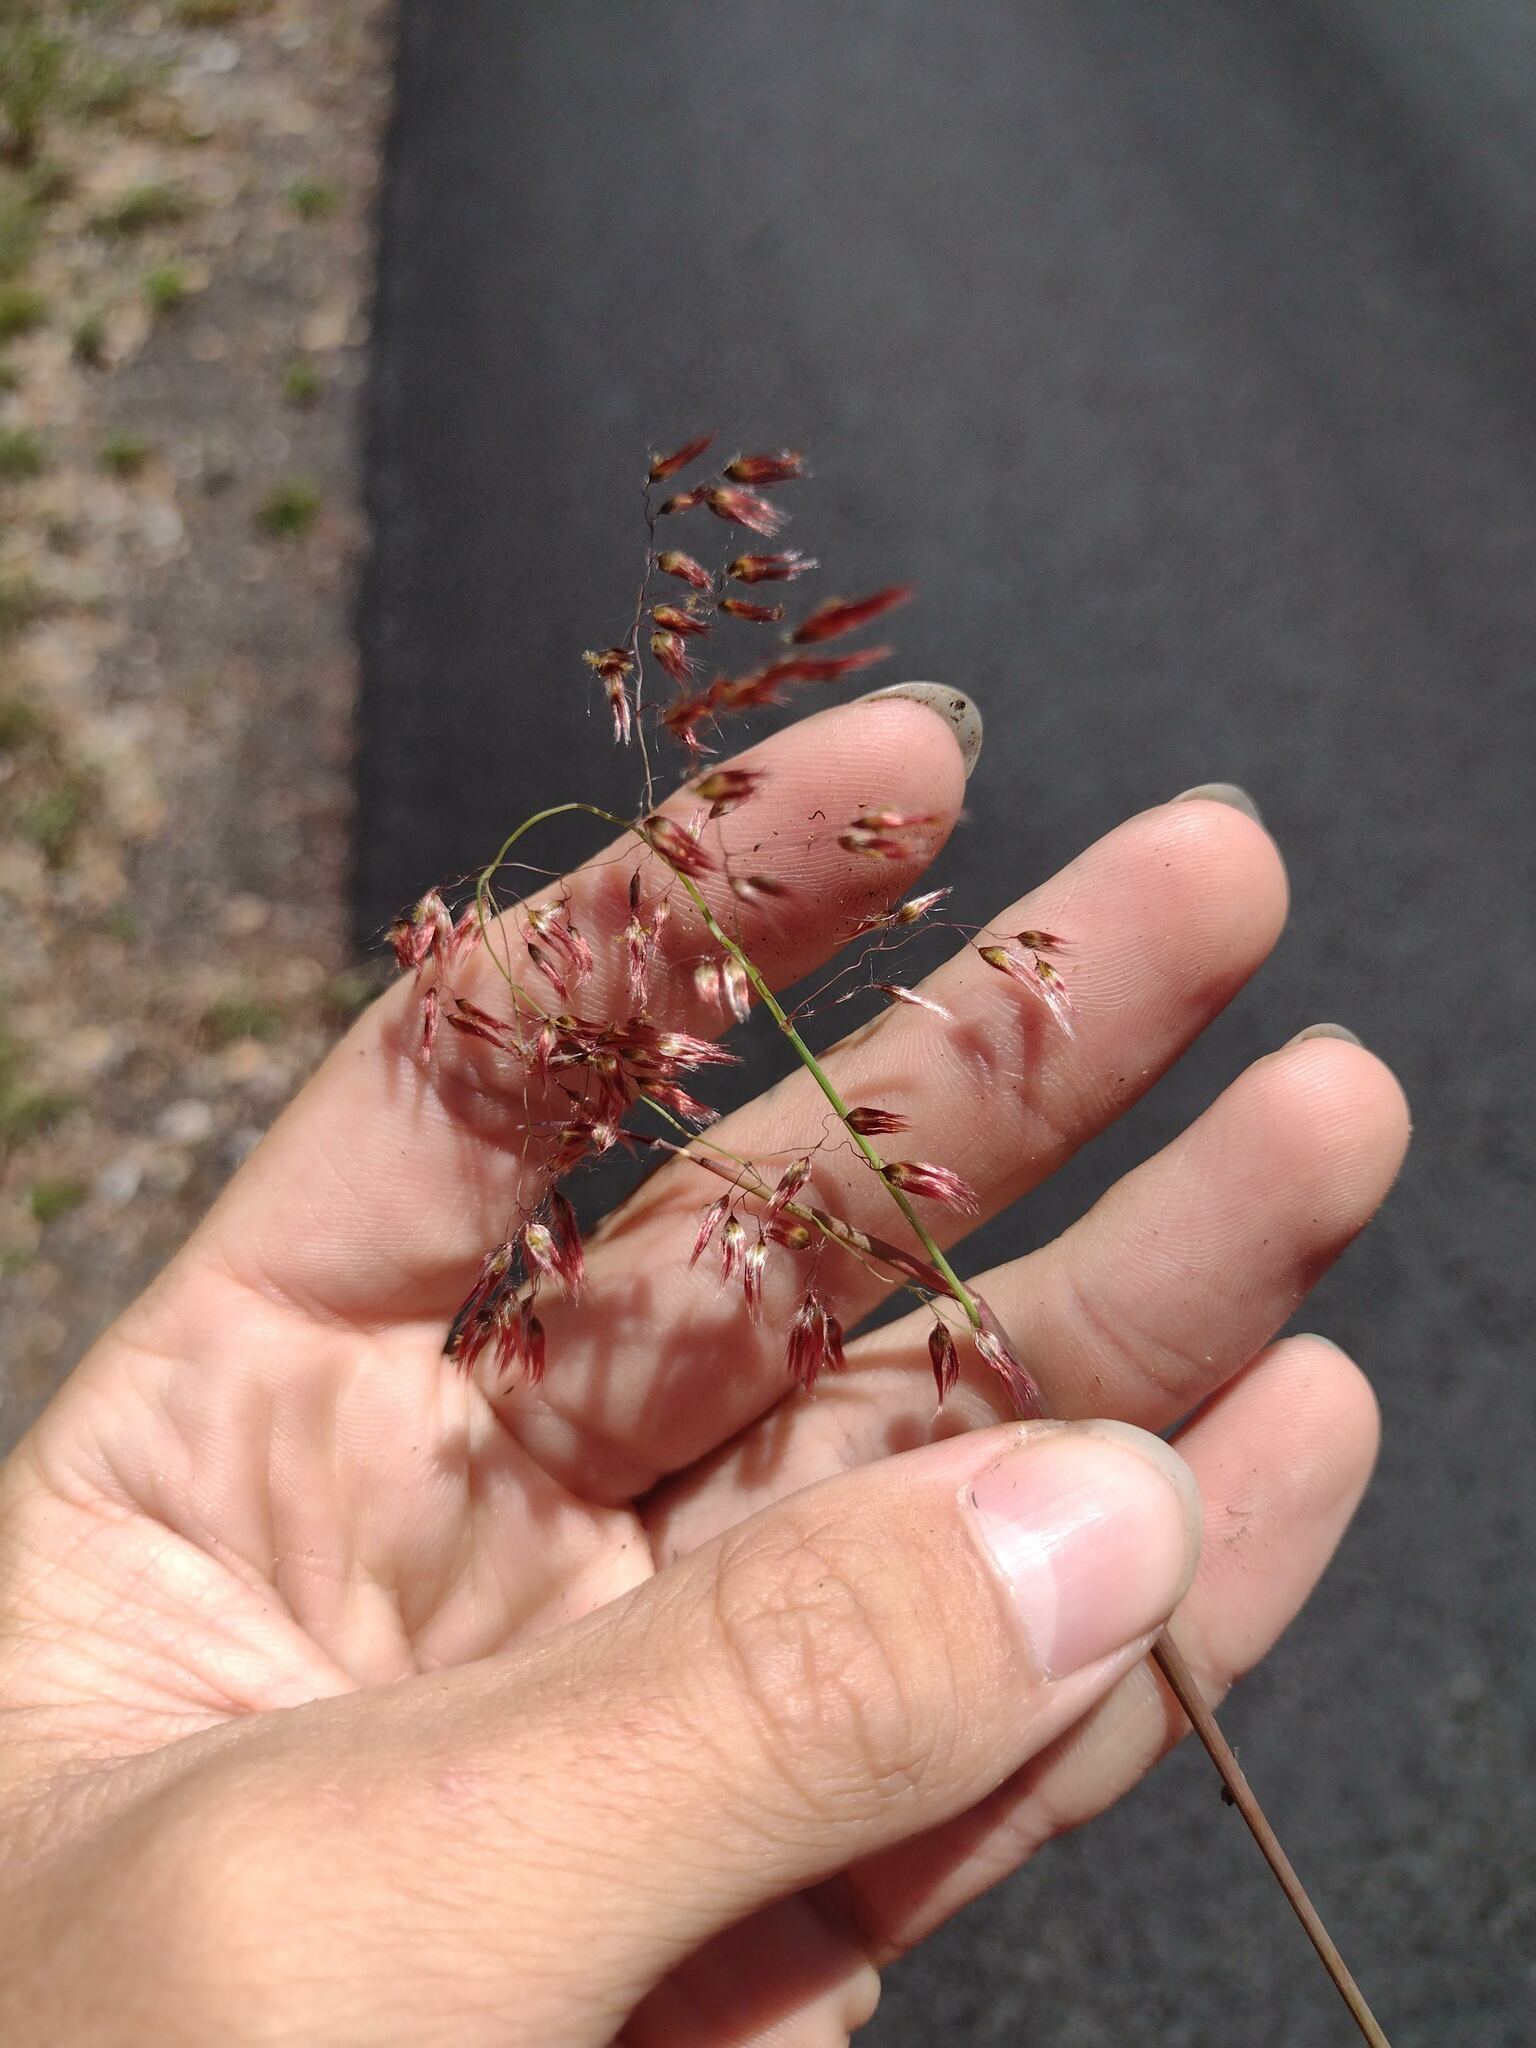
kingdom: Plantae
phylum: Tracheophyta
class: Liliopsida
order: Poales
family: Poaceae
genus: Melinis
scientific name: Melinis repens
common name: Rose natal grass
